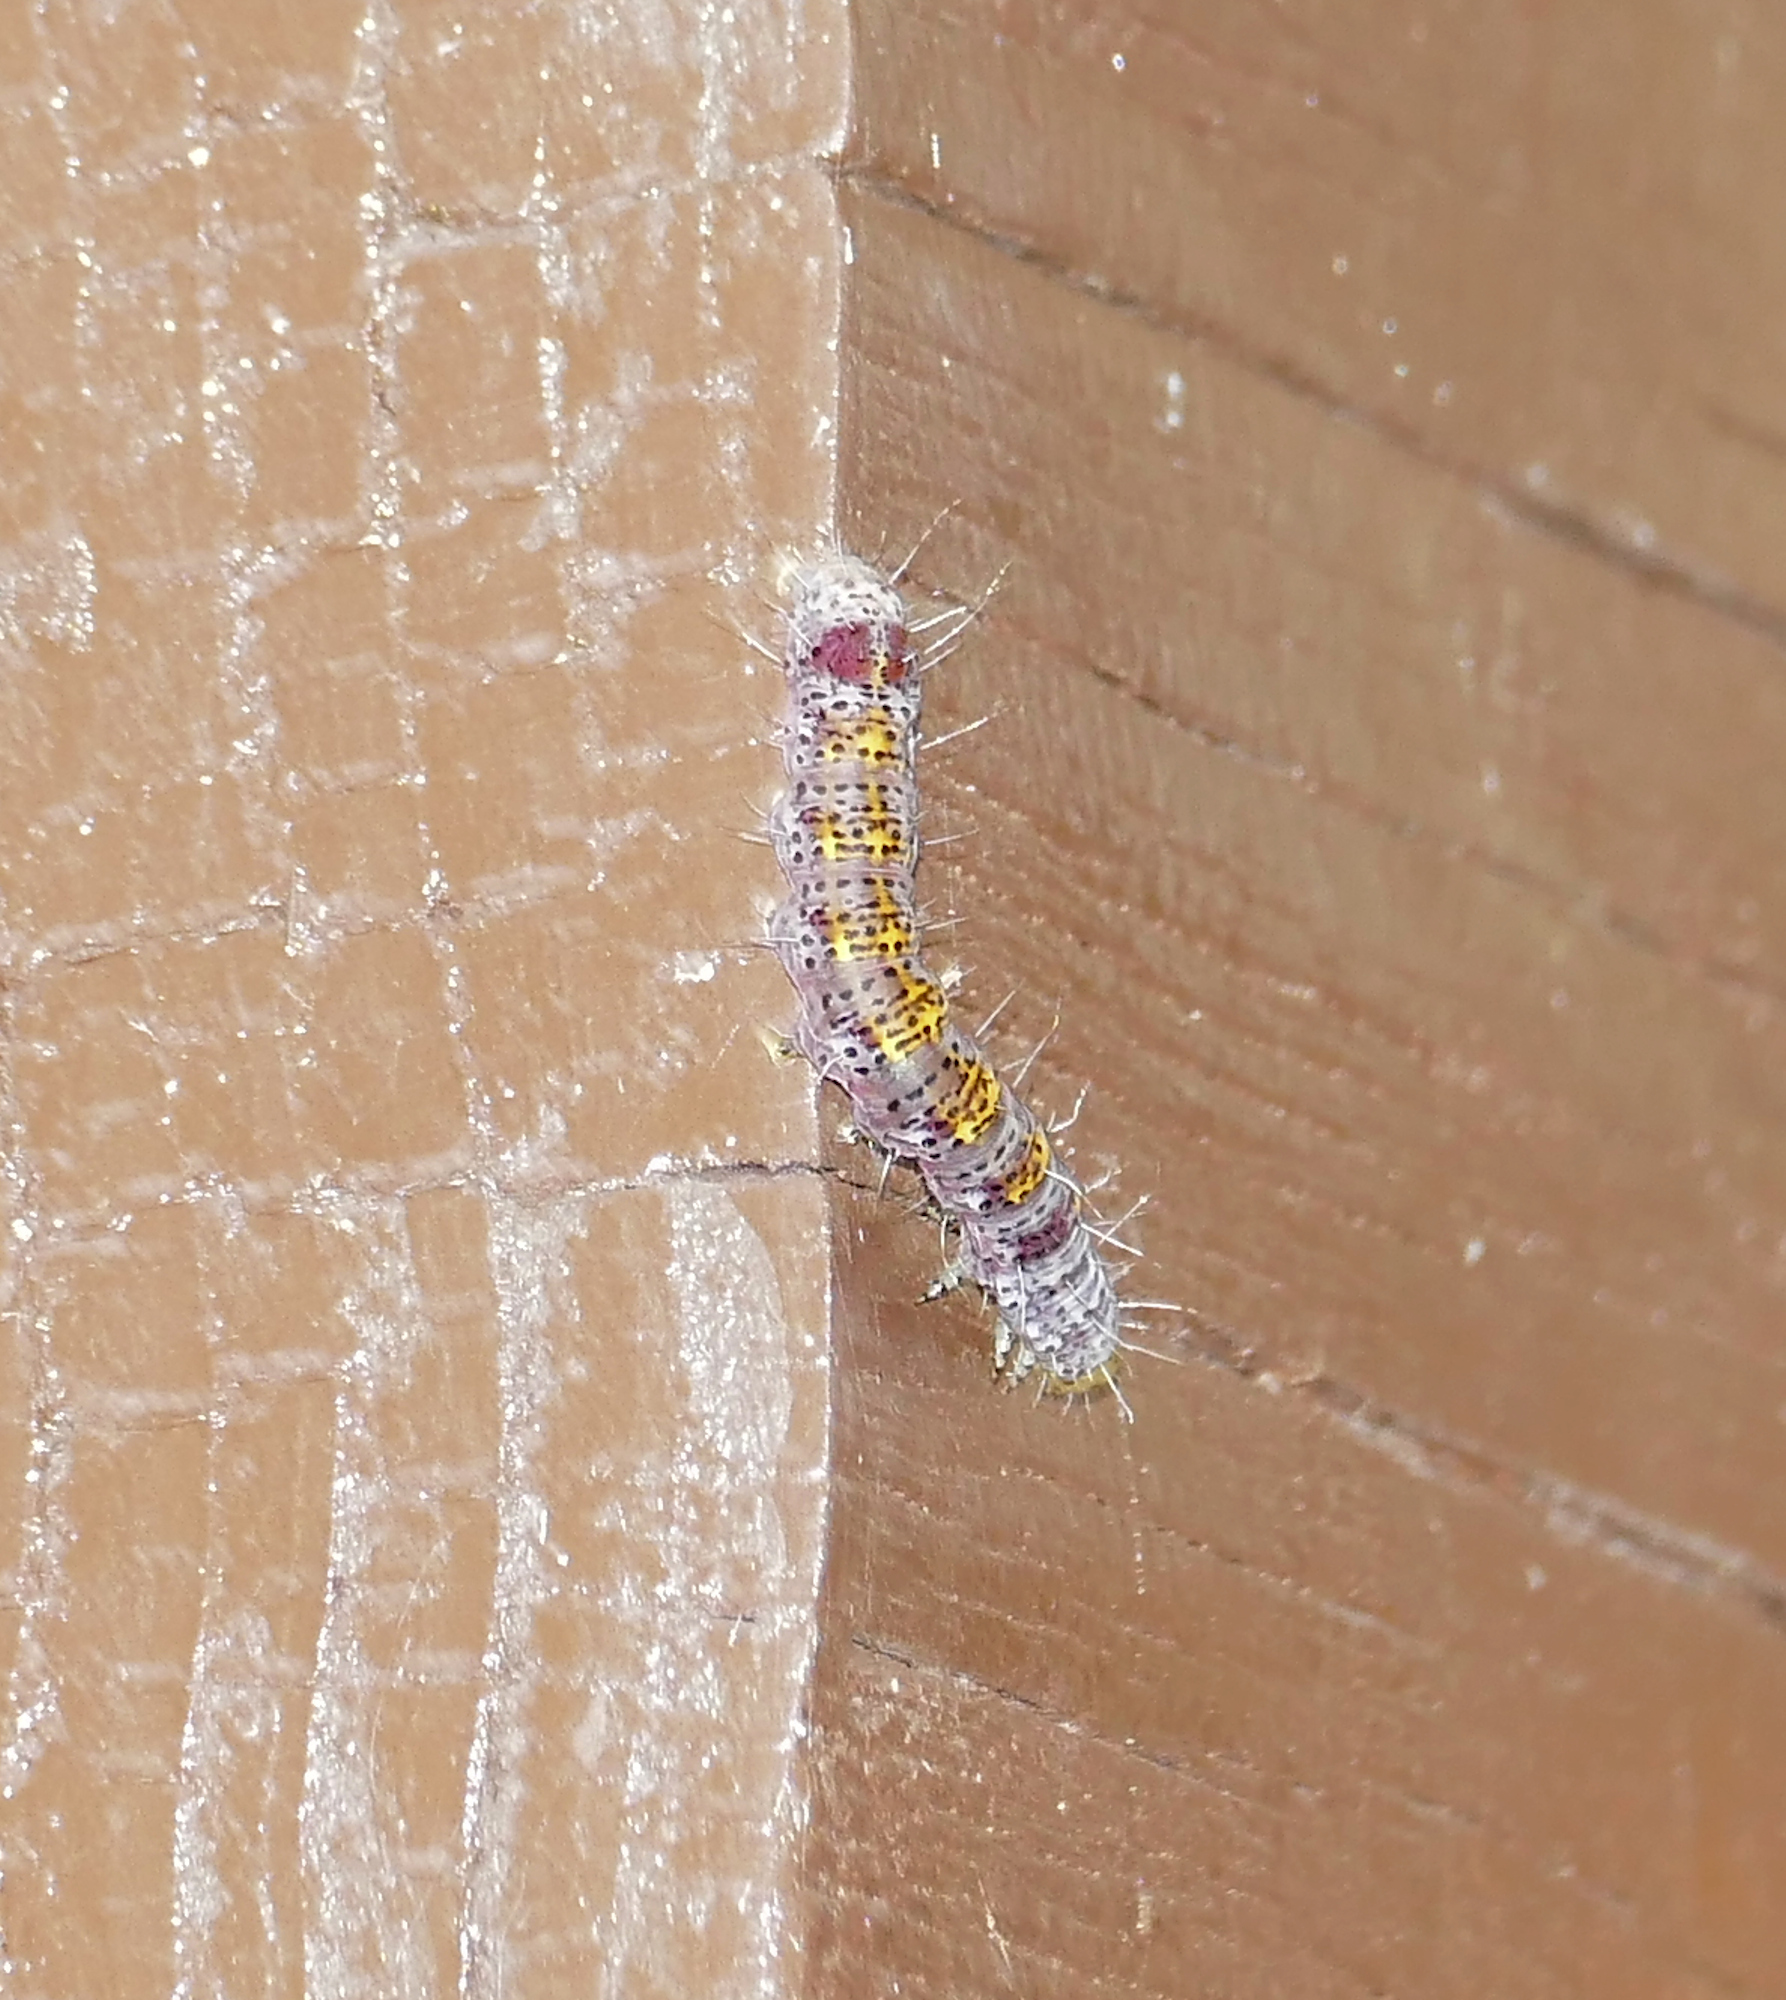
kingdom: Animalia
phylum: Arthropoda
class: Insecta
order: Lepidoptera
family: Noctuidae
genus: Gerra
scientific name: Gerra sevorsa
